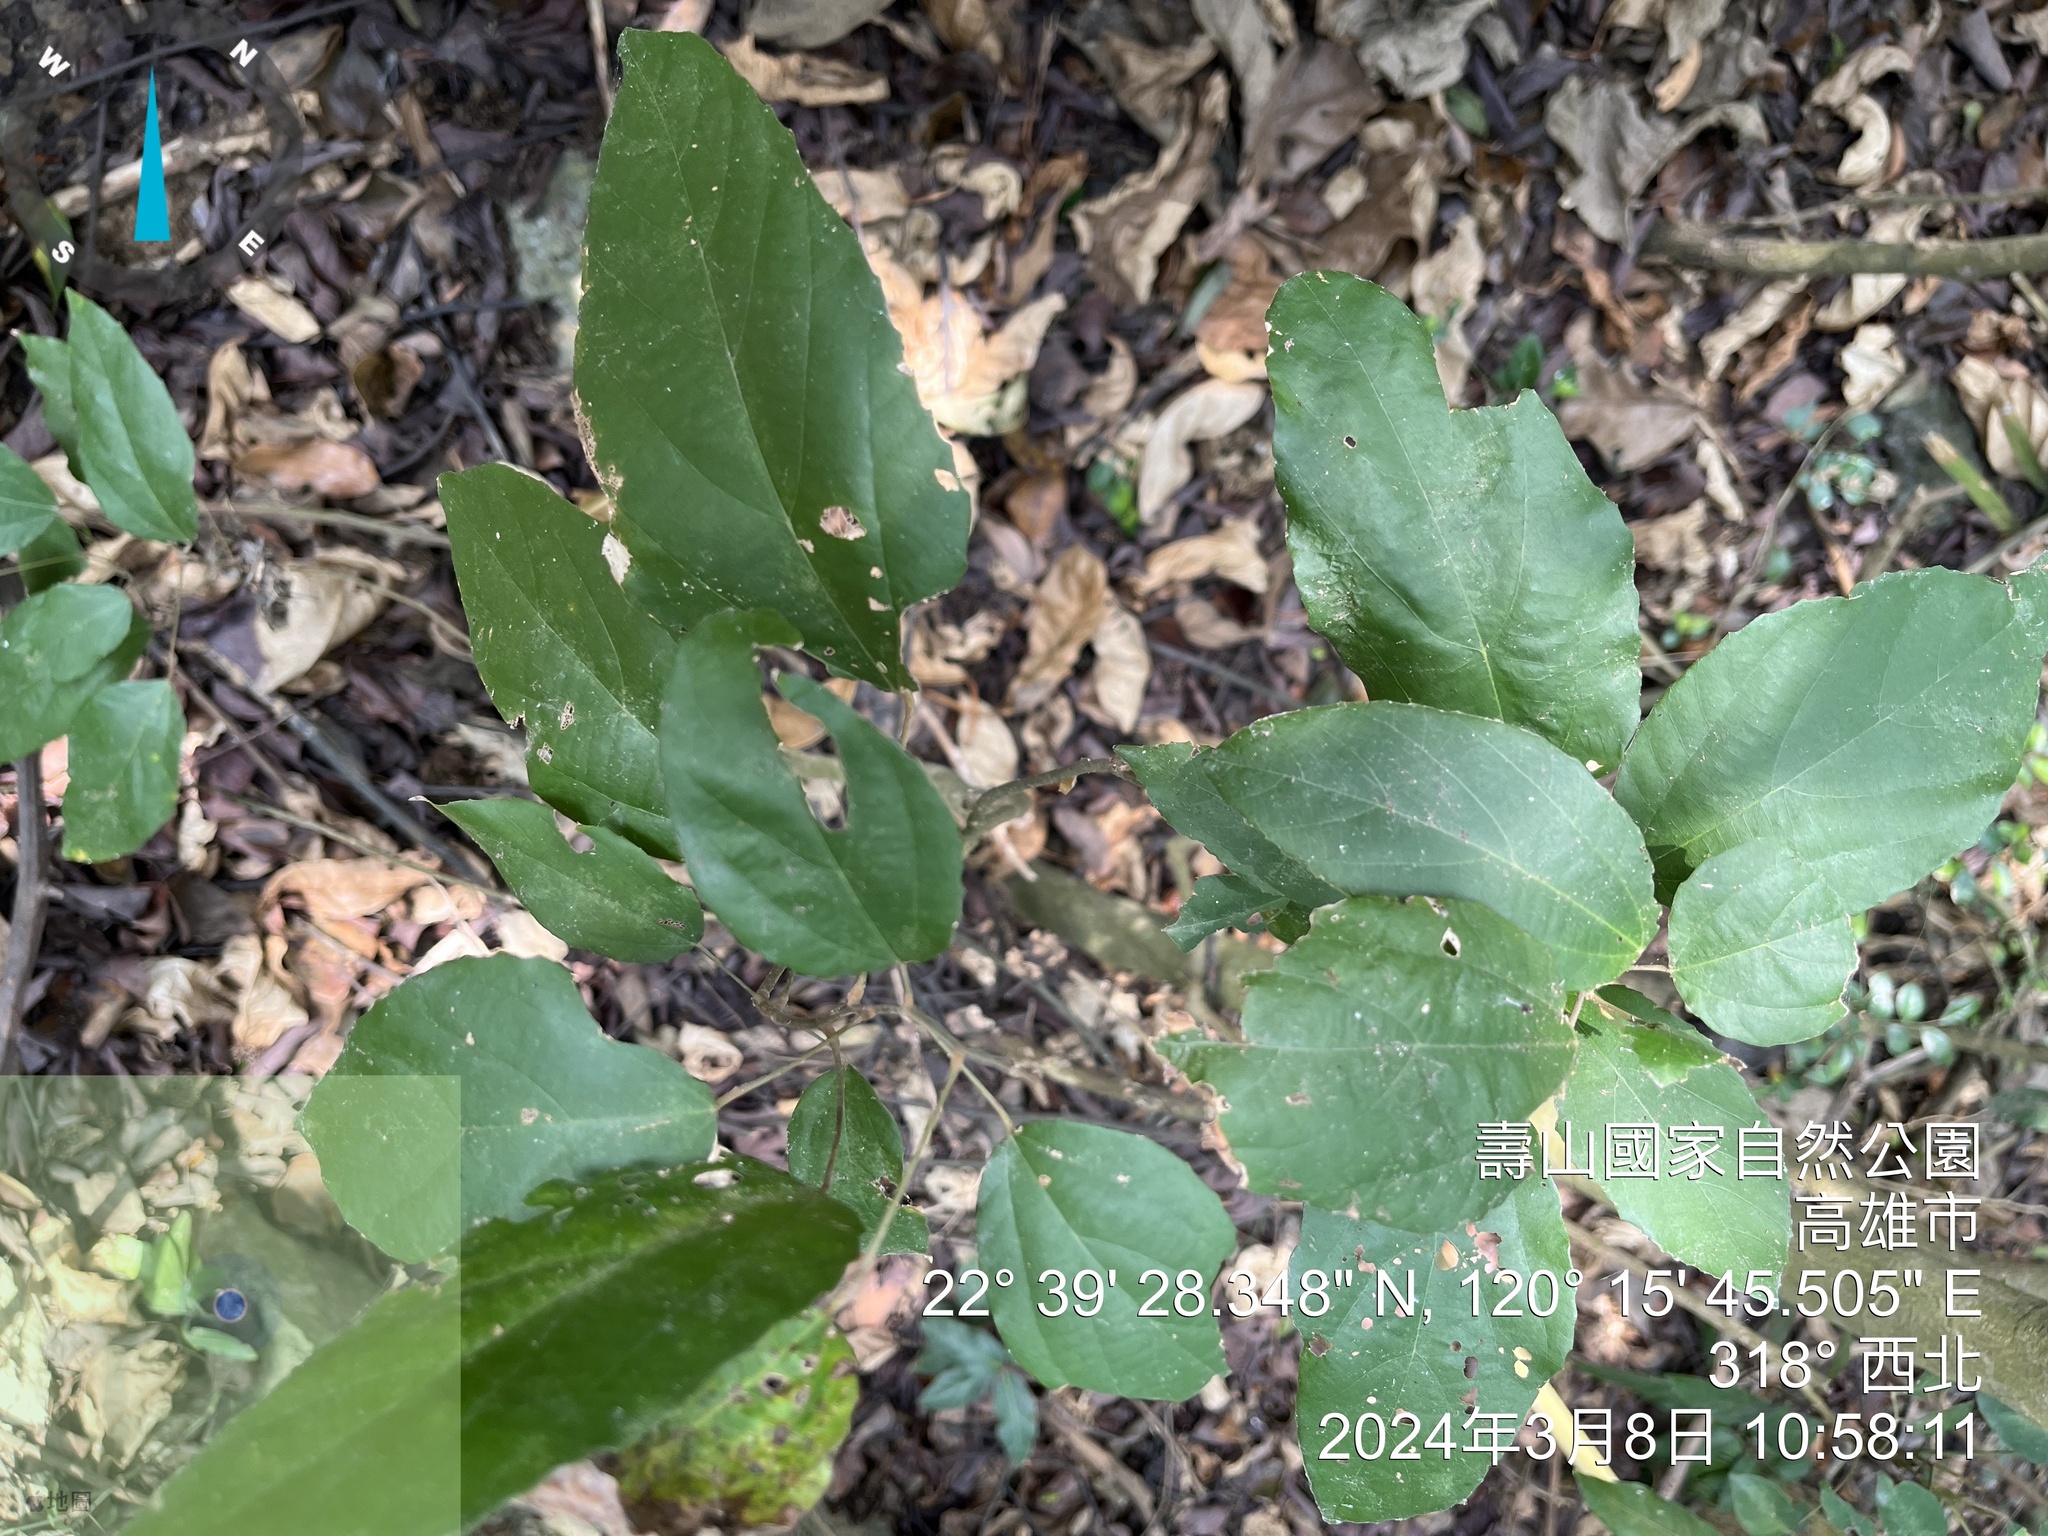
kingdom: Plantae
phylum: Tracheophyta
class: Magnoliopsida
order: Malpighiales
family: Euphorbiaceae
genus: Mallotus
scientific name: Mallotus philippensis
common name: Kamala tree
